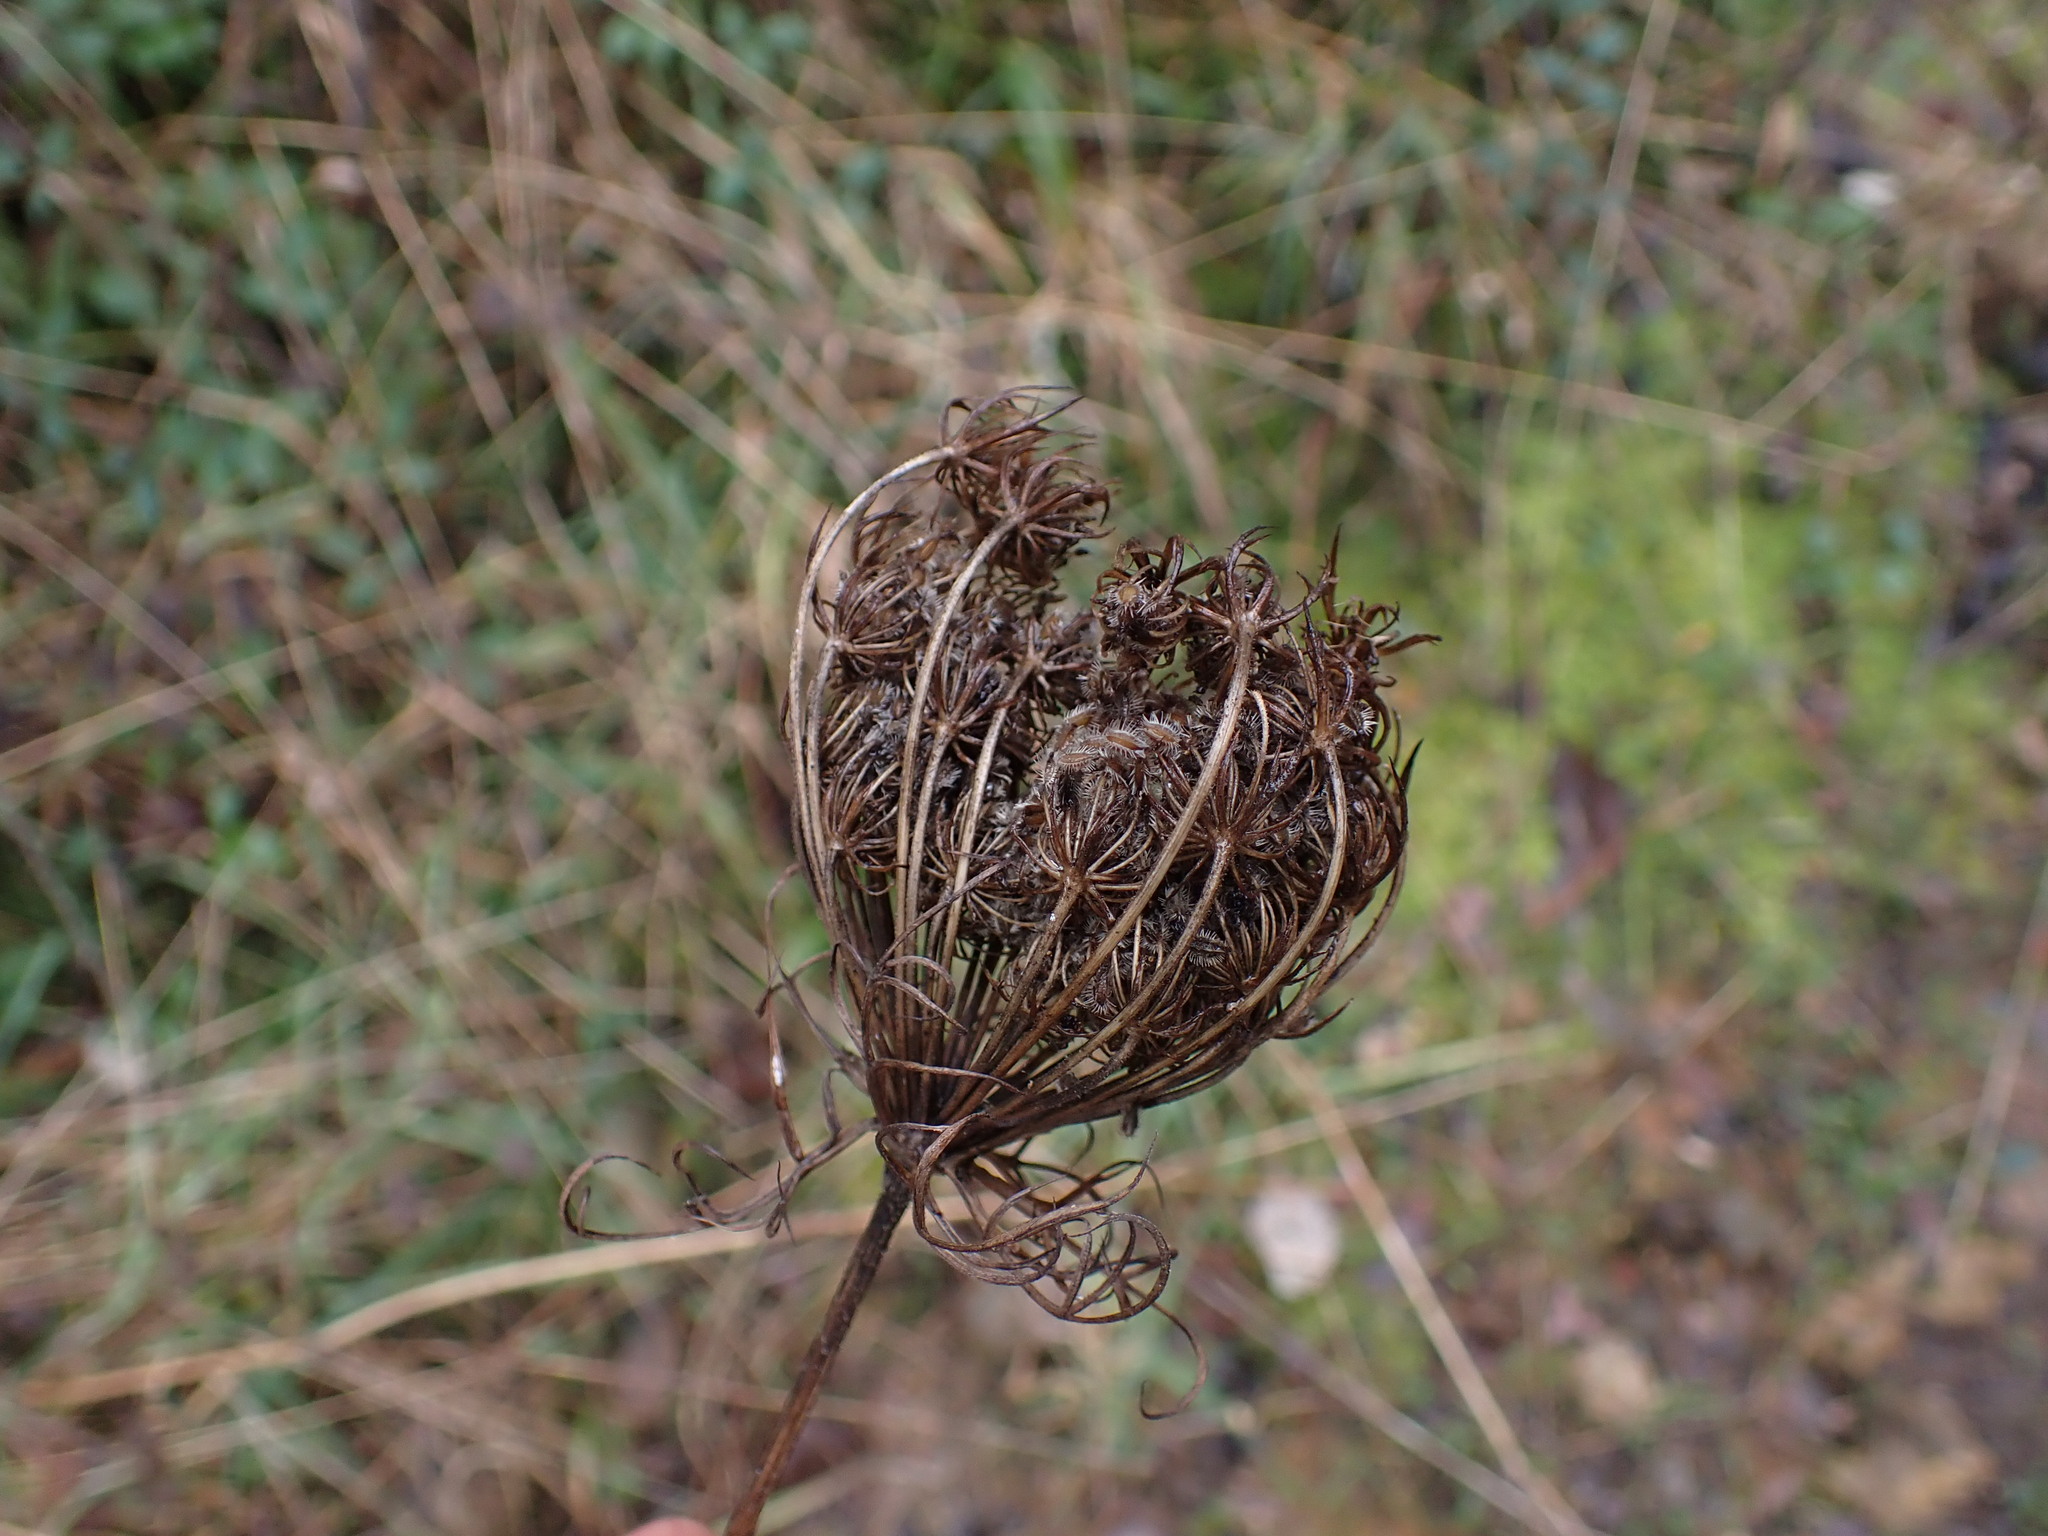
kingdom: Plantae
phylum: Tracheophyta
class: Magnoliopsida
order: Apiales
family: Apiaceae
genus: Daucus
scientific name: Daucus carota
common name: Wild carrot
